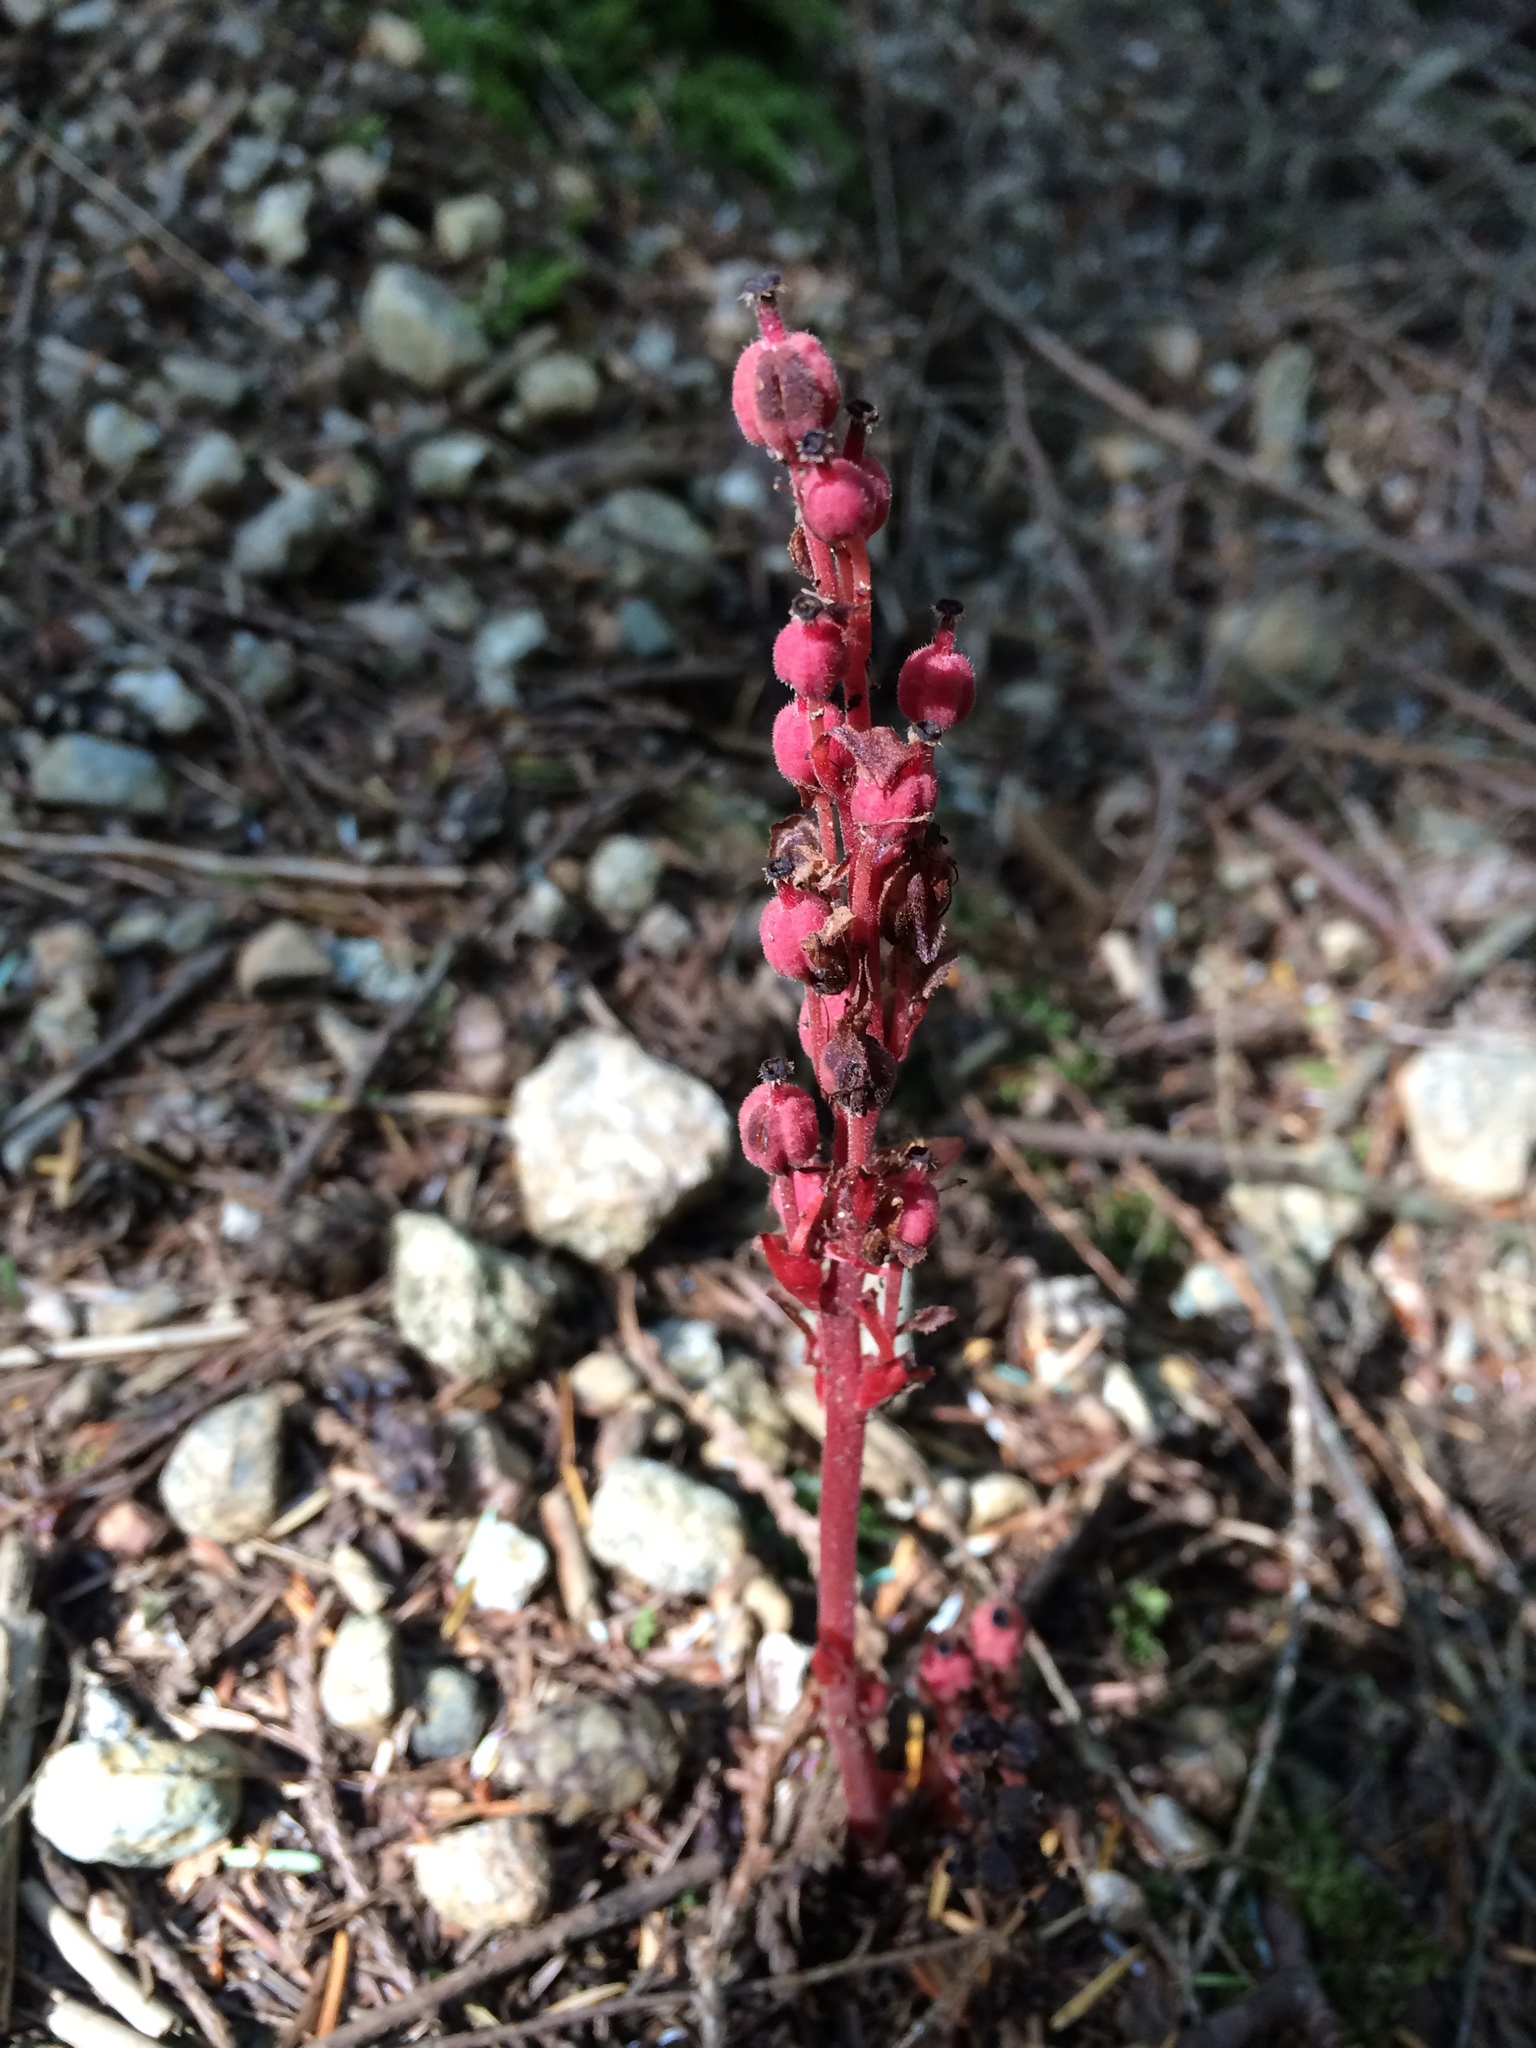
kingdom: Plantae
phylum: Tracheophyta
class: Magnoliopsida
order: Ericales
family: Ericaceae
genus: Hypopitys
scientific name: Hypopitys monotropa
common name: Yellow bird's-nest
